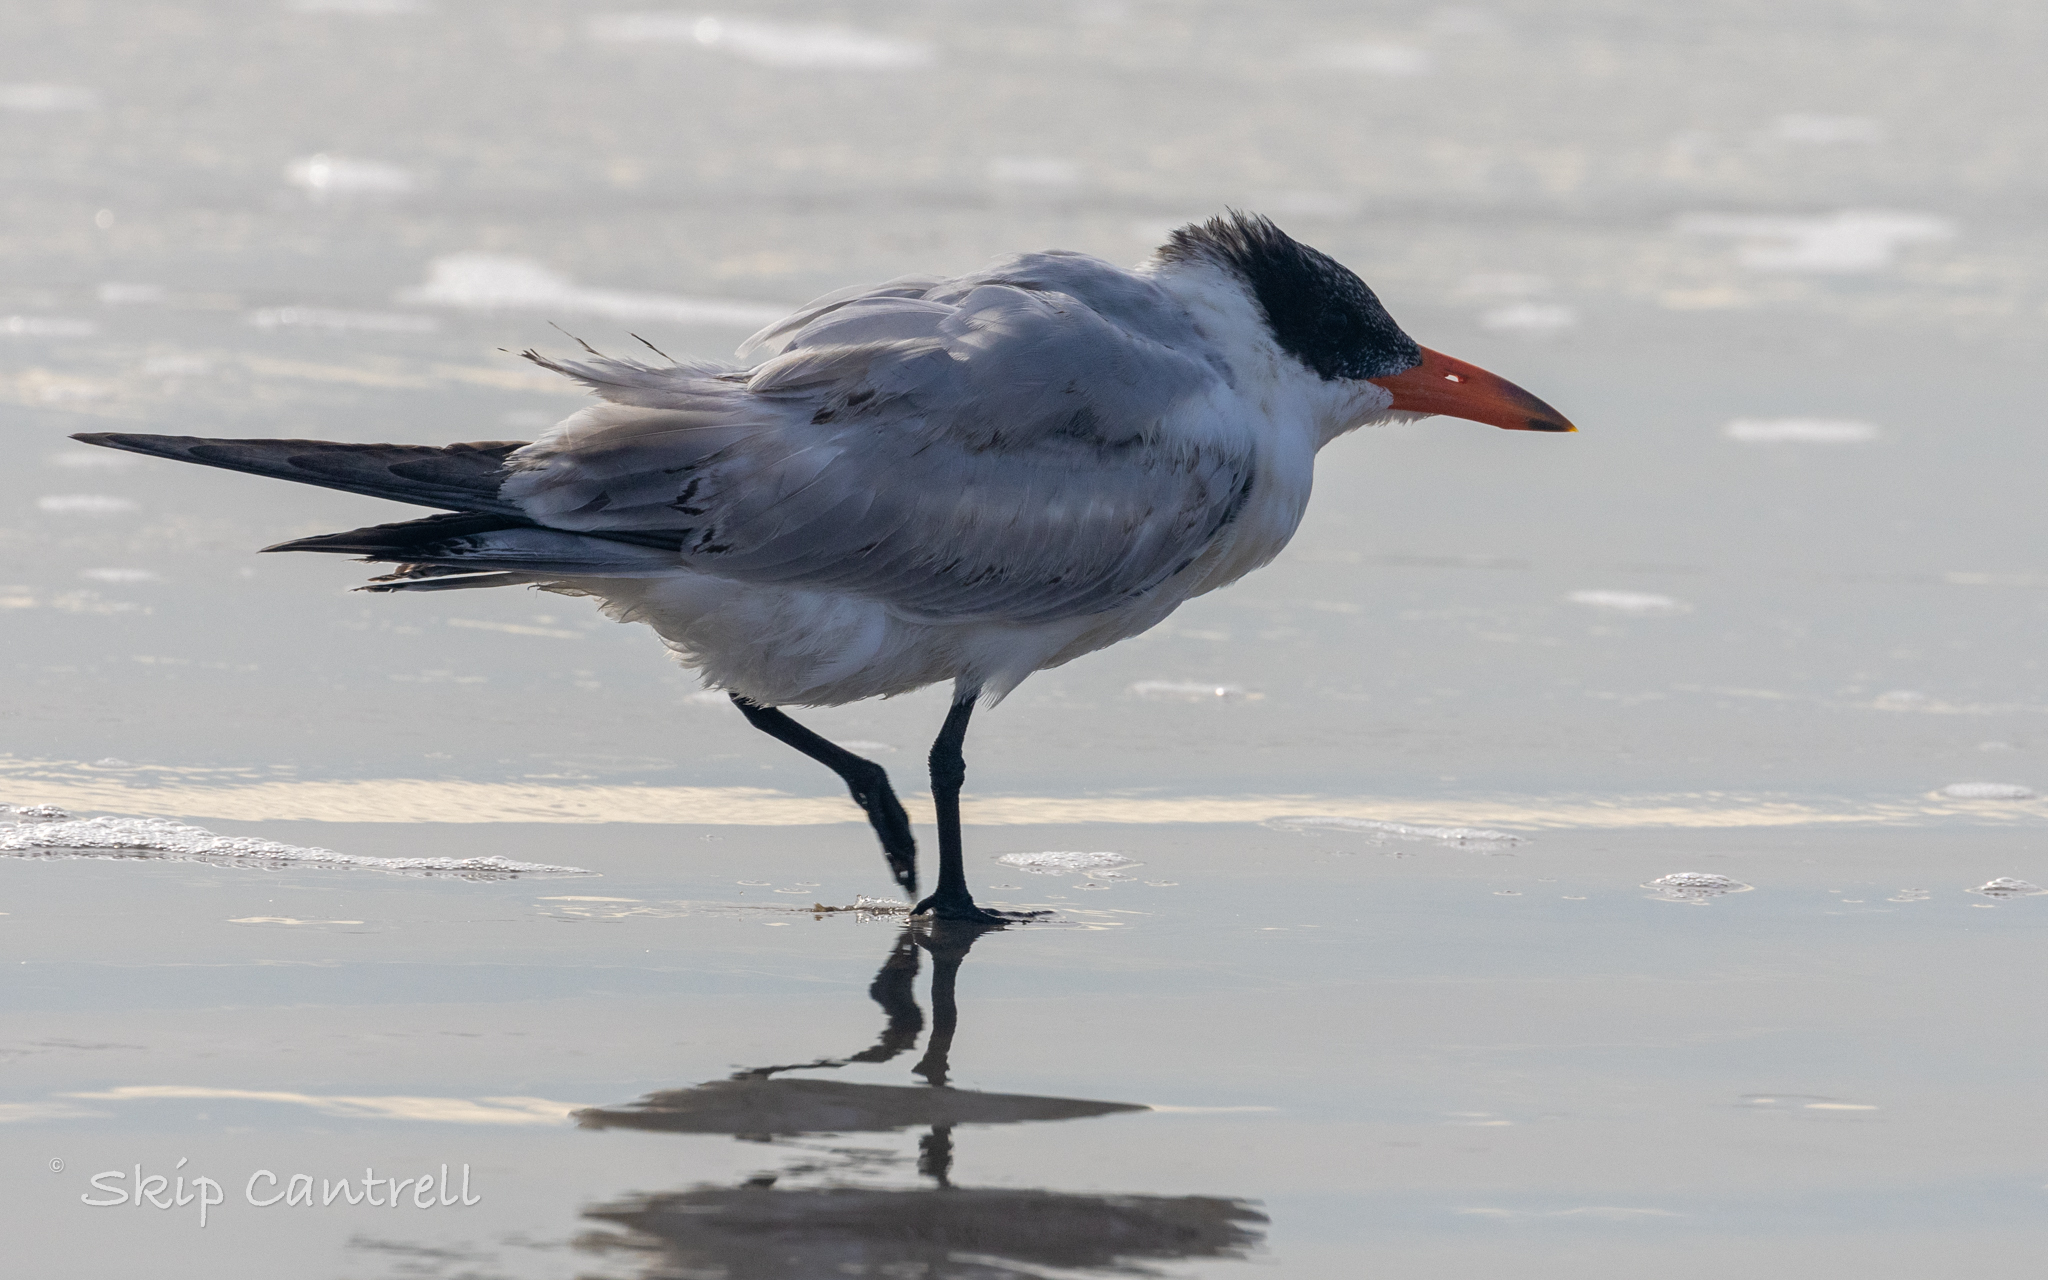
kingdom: Animalia
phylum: Chordata
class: Aves
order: Charadriiformes
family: Laridae
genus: Hydroprogne
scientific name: Hydroprogne caspia
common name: Caspian tern
